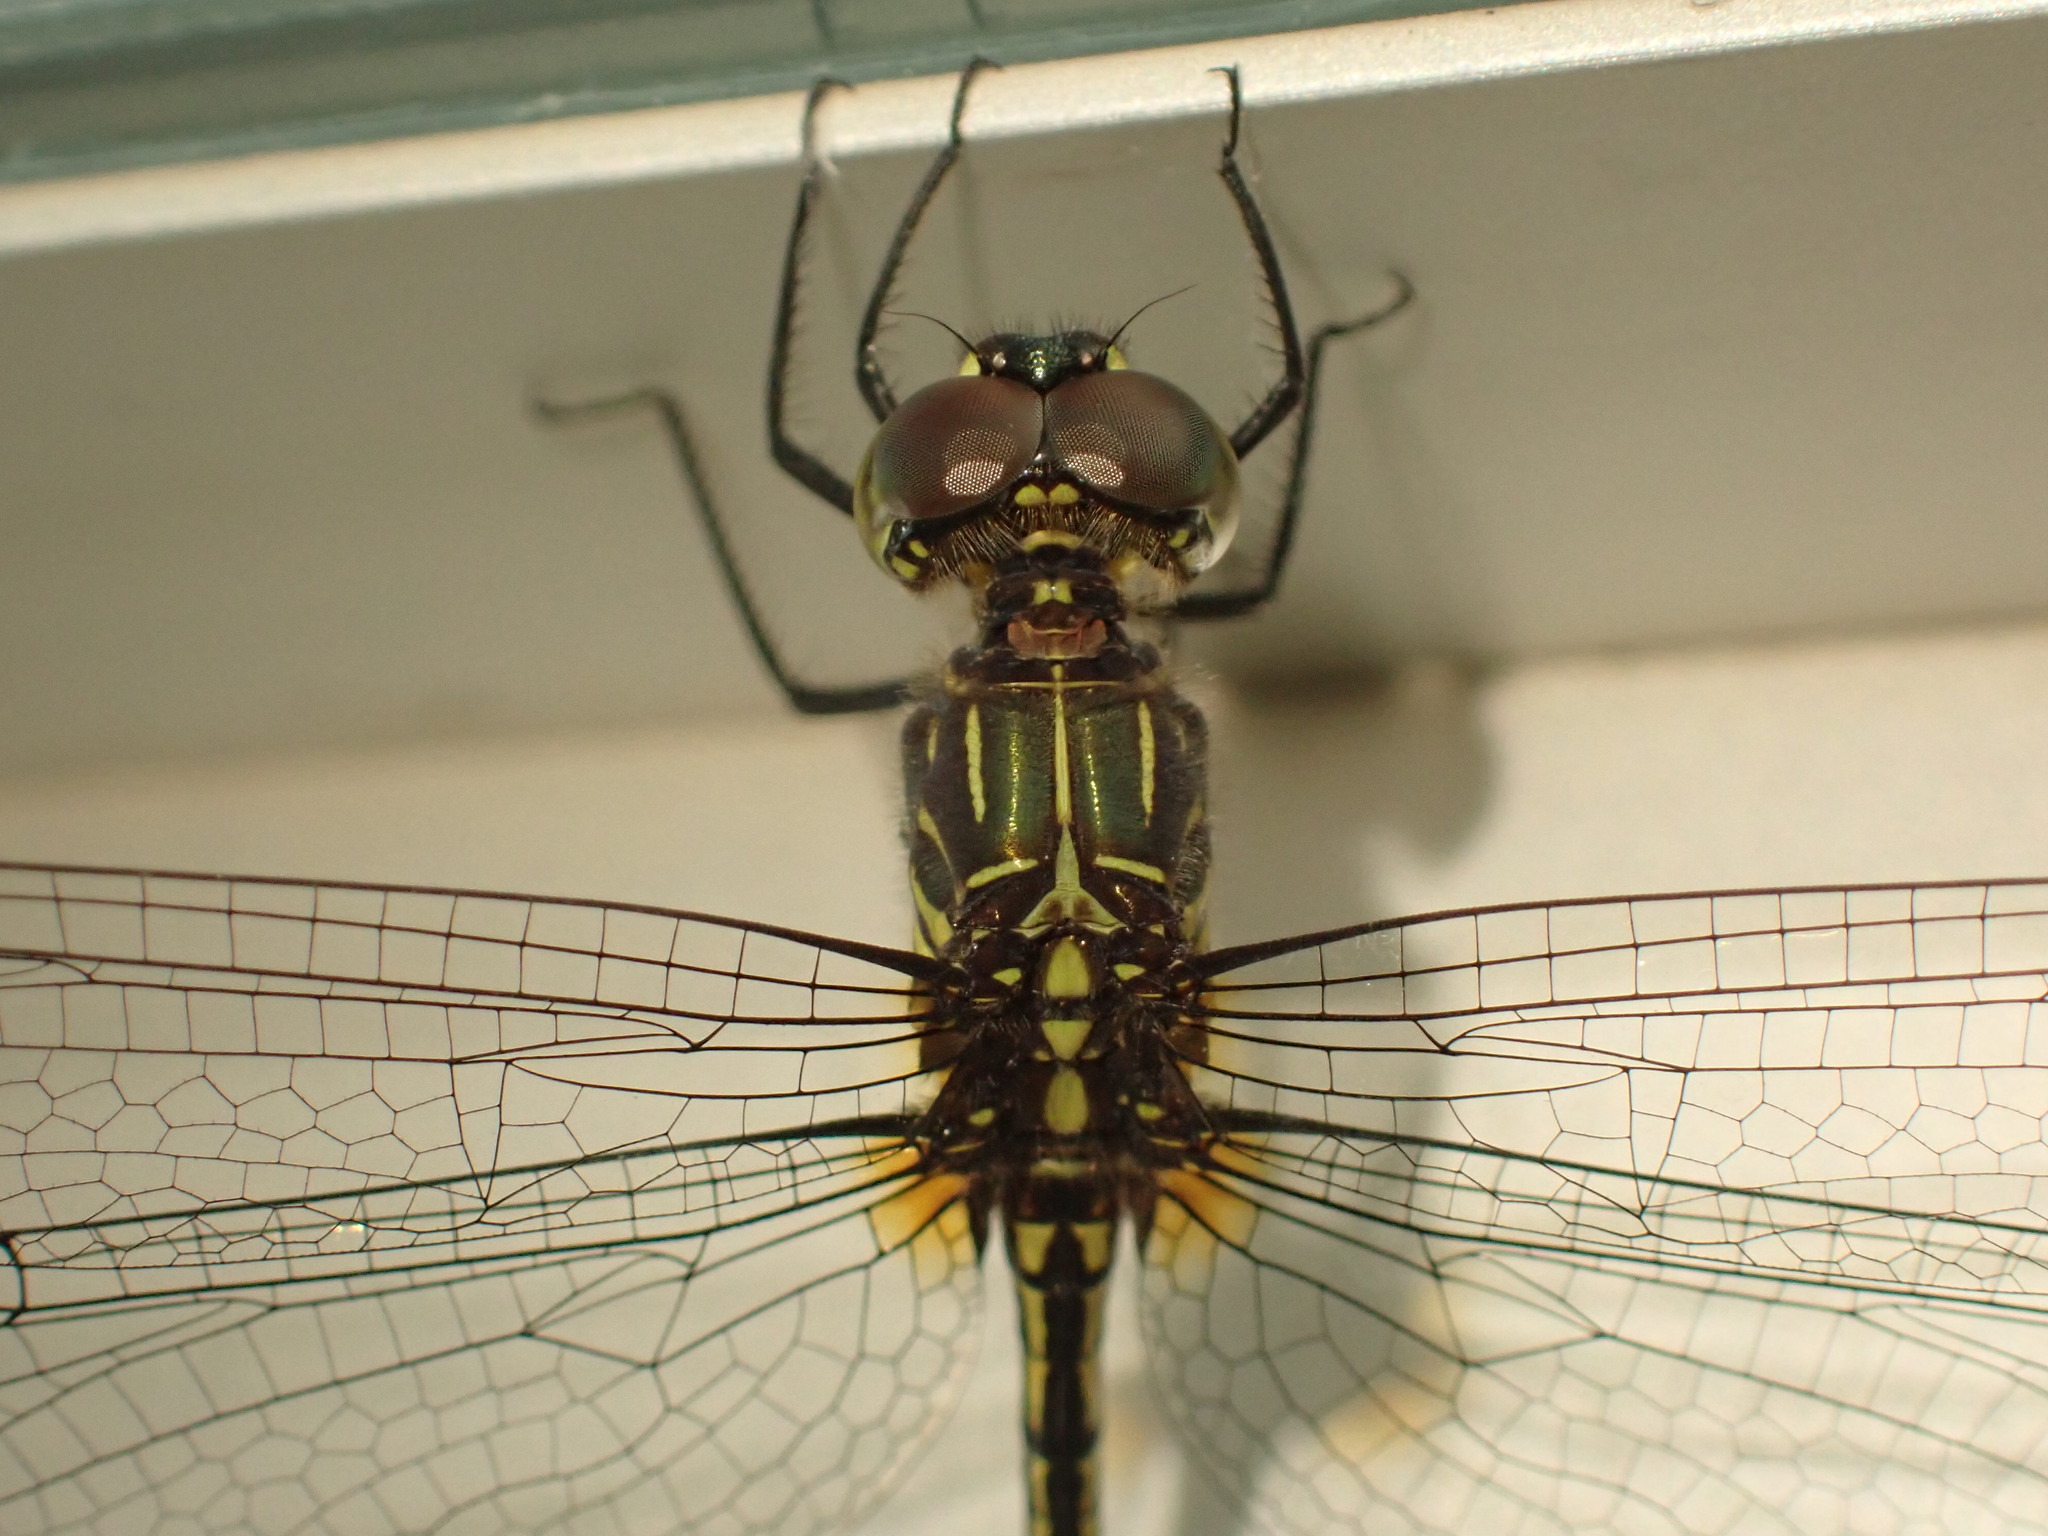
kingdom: Animalia
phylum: Arthropoda
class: Insecta
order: Odonata
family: Libellulidae
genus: Dythemis
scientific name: Dythemis nigra
